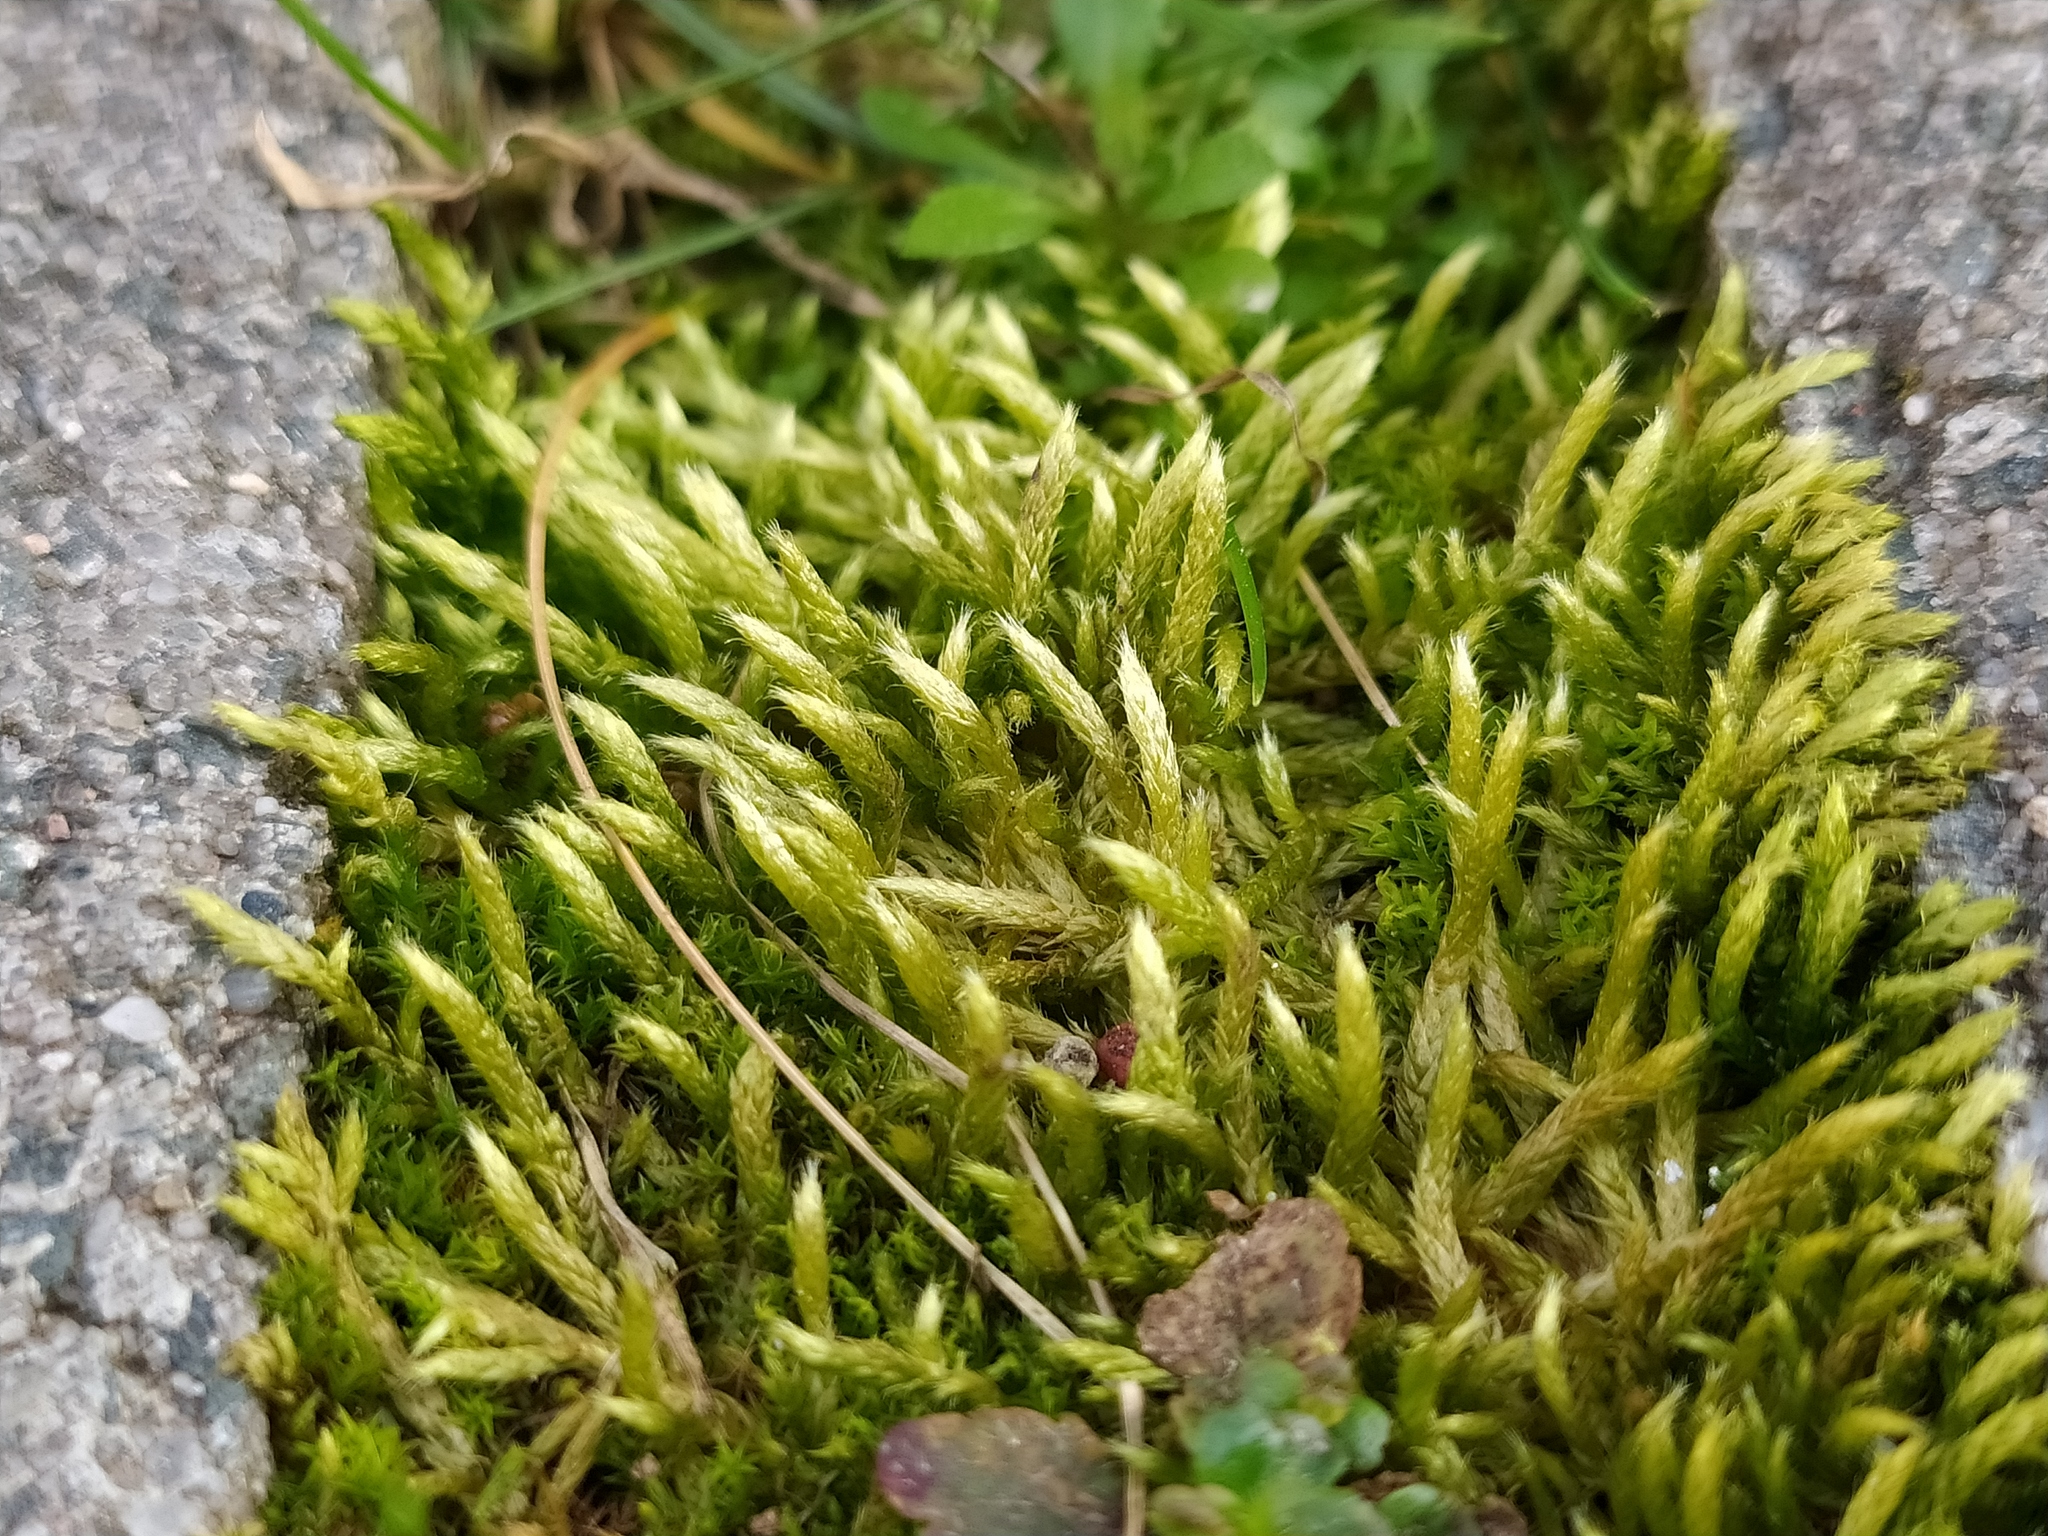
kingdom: Plantae
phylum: Bryophyta
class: Bryopsida
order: Hypnales
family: Brachytheciaceae
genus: Brachythecium
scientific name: Brachythecium albicans
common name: Whitish ragged moss
